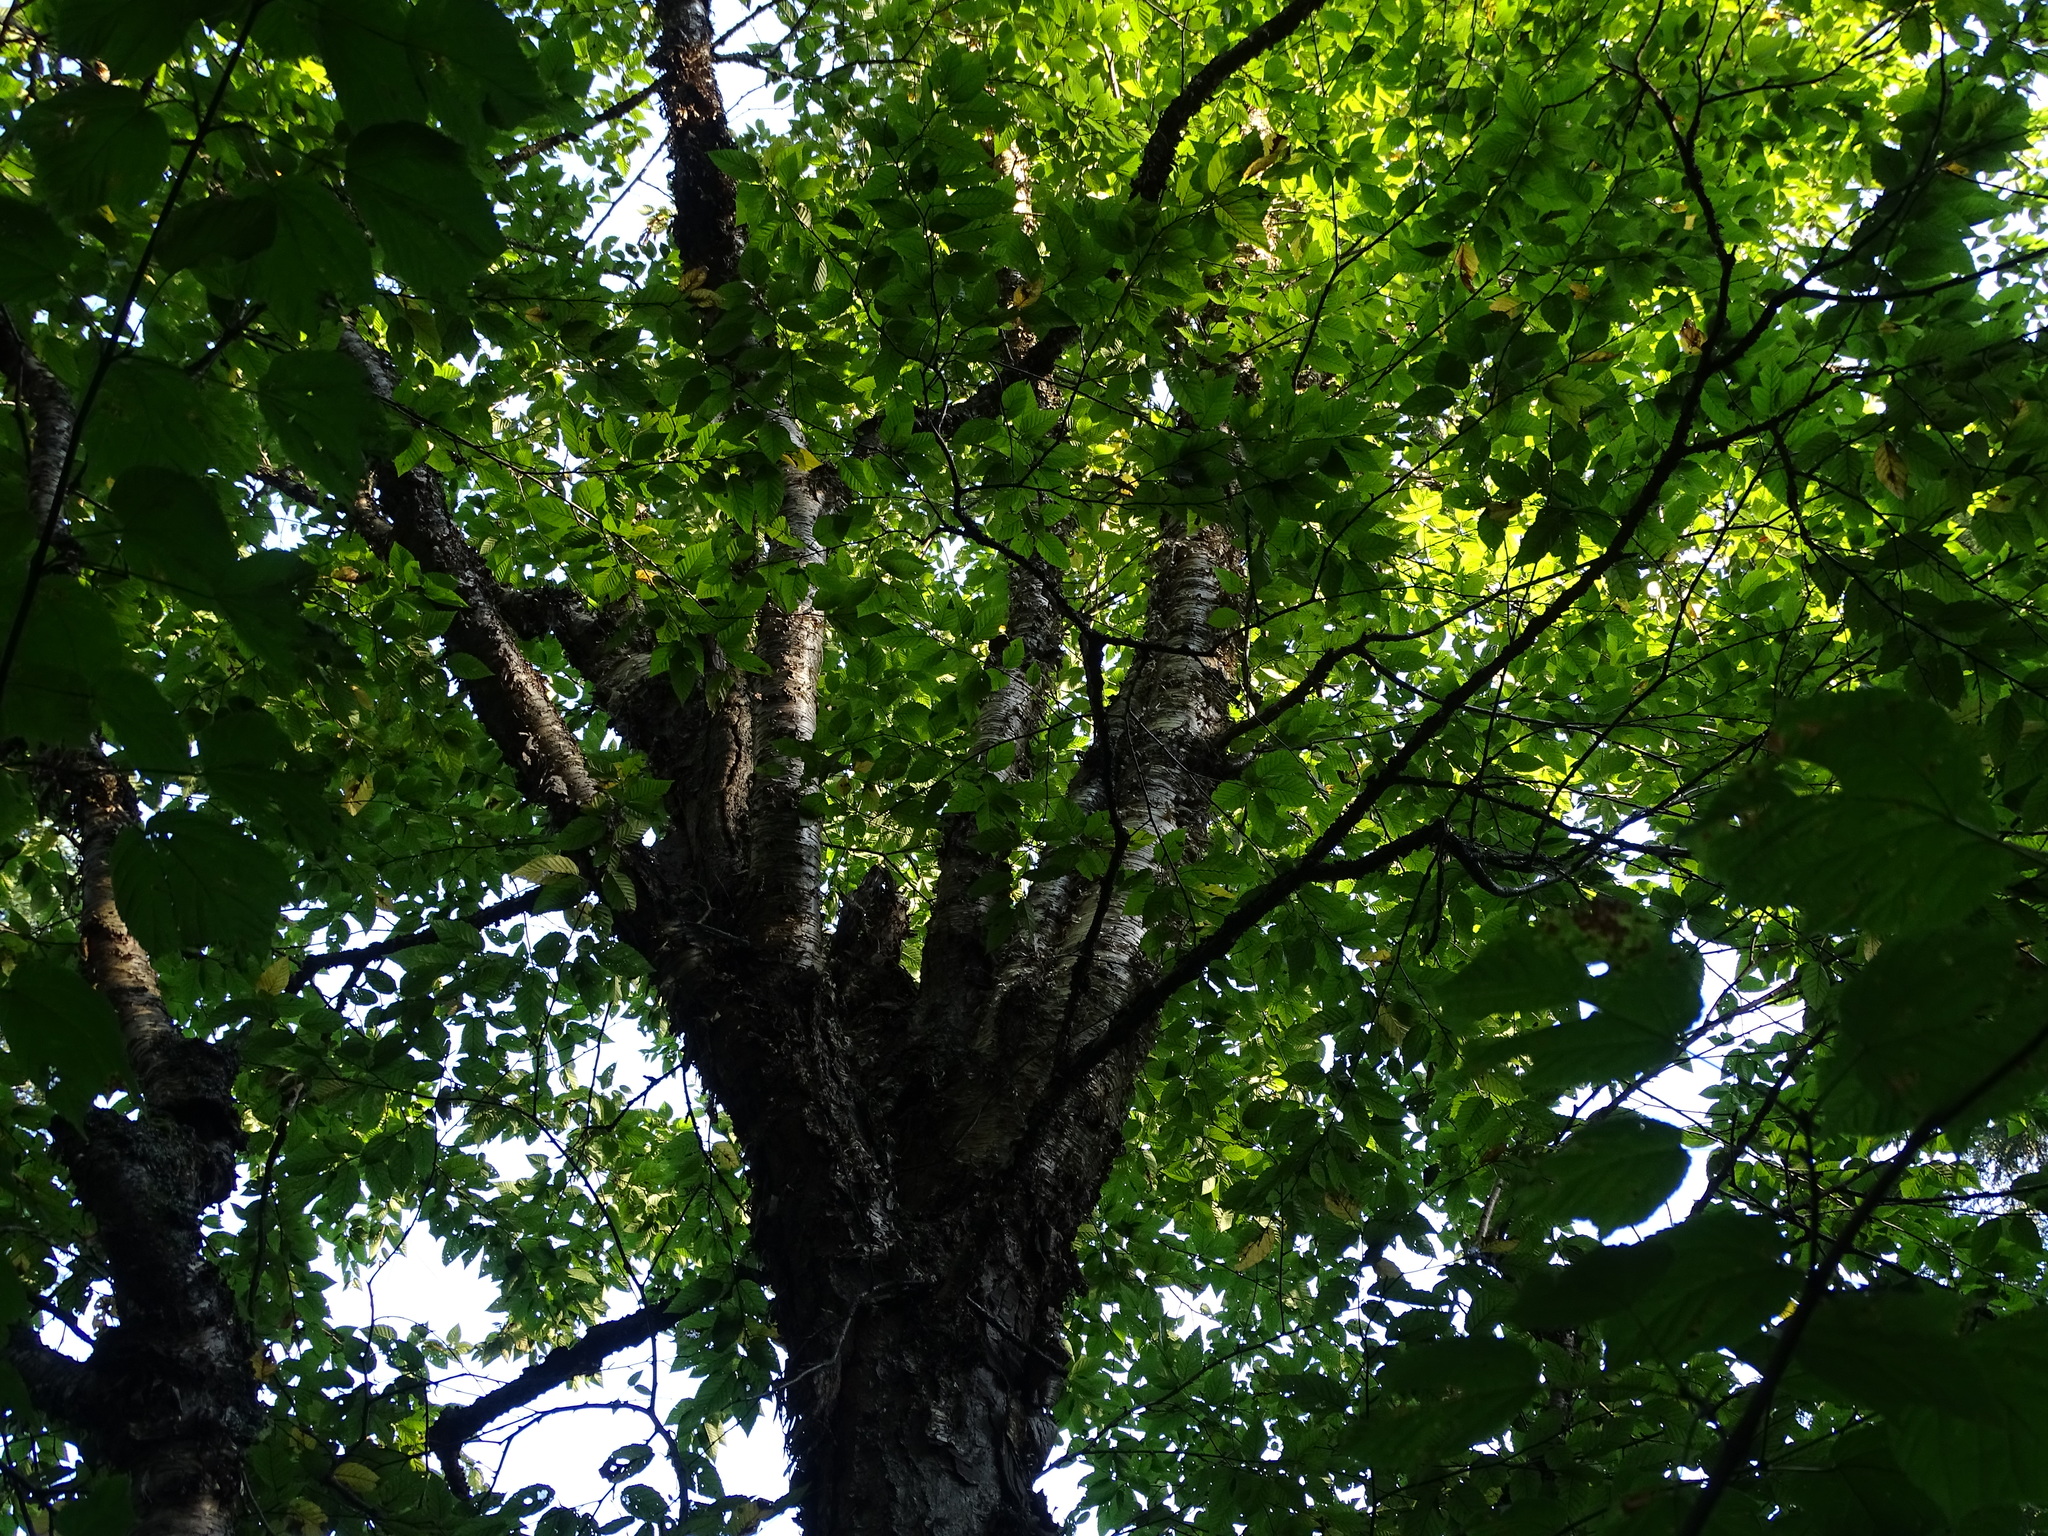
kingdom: Plantae
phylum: Tracheophyta
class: Magnoliopsida
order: Fagales
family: Betulaceae
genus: Betula
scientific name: Betula alleghaniensis
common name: Yellow birch
